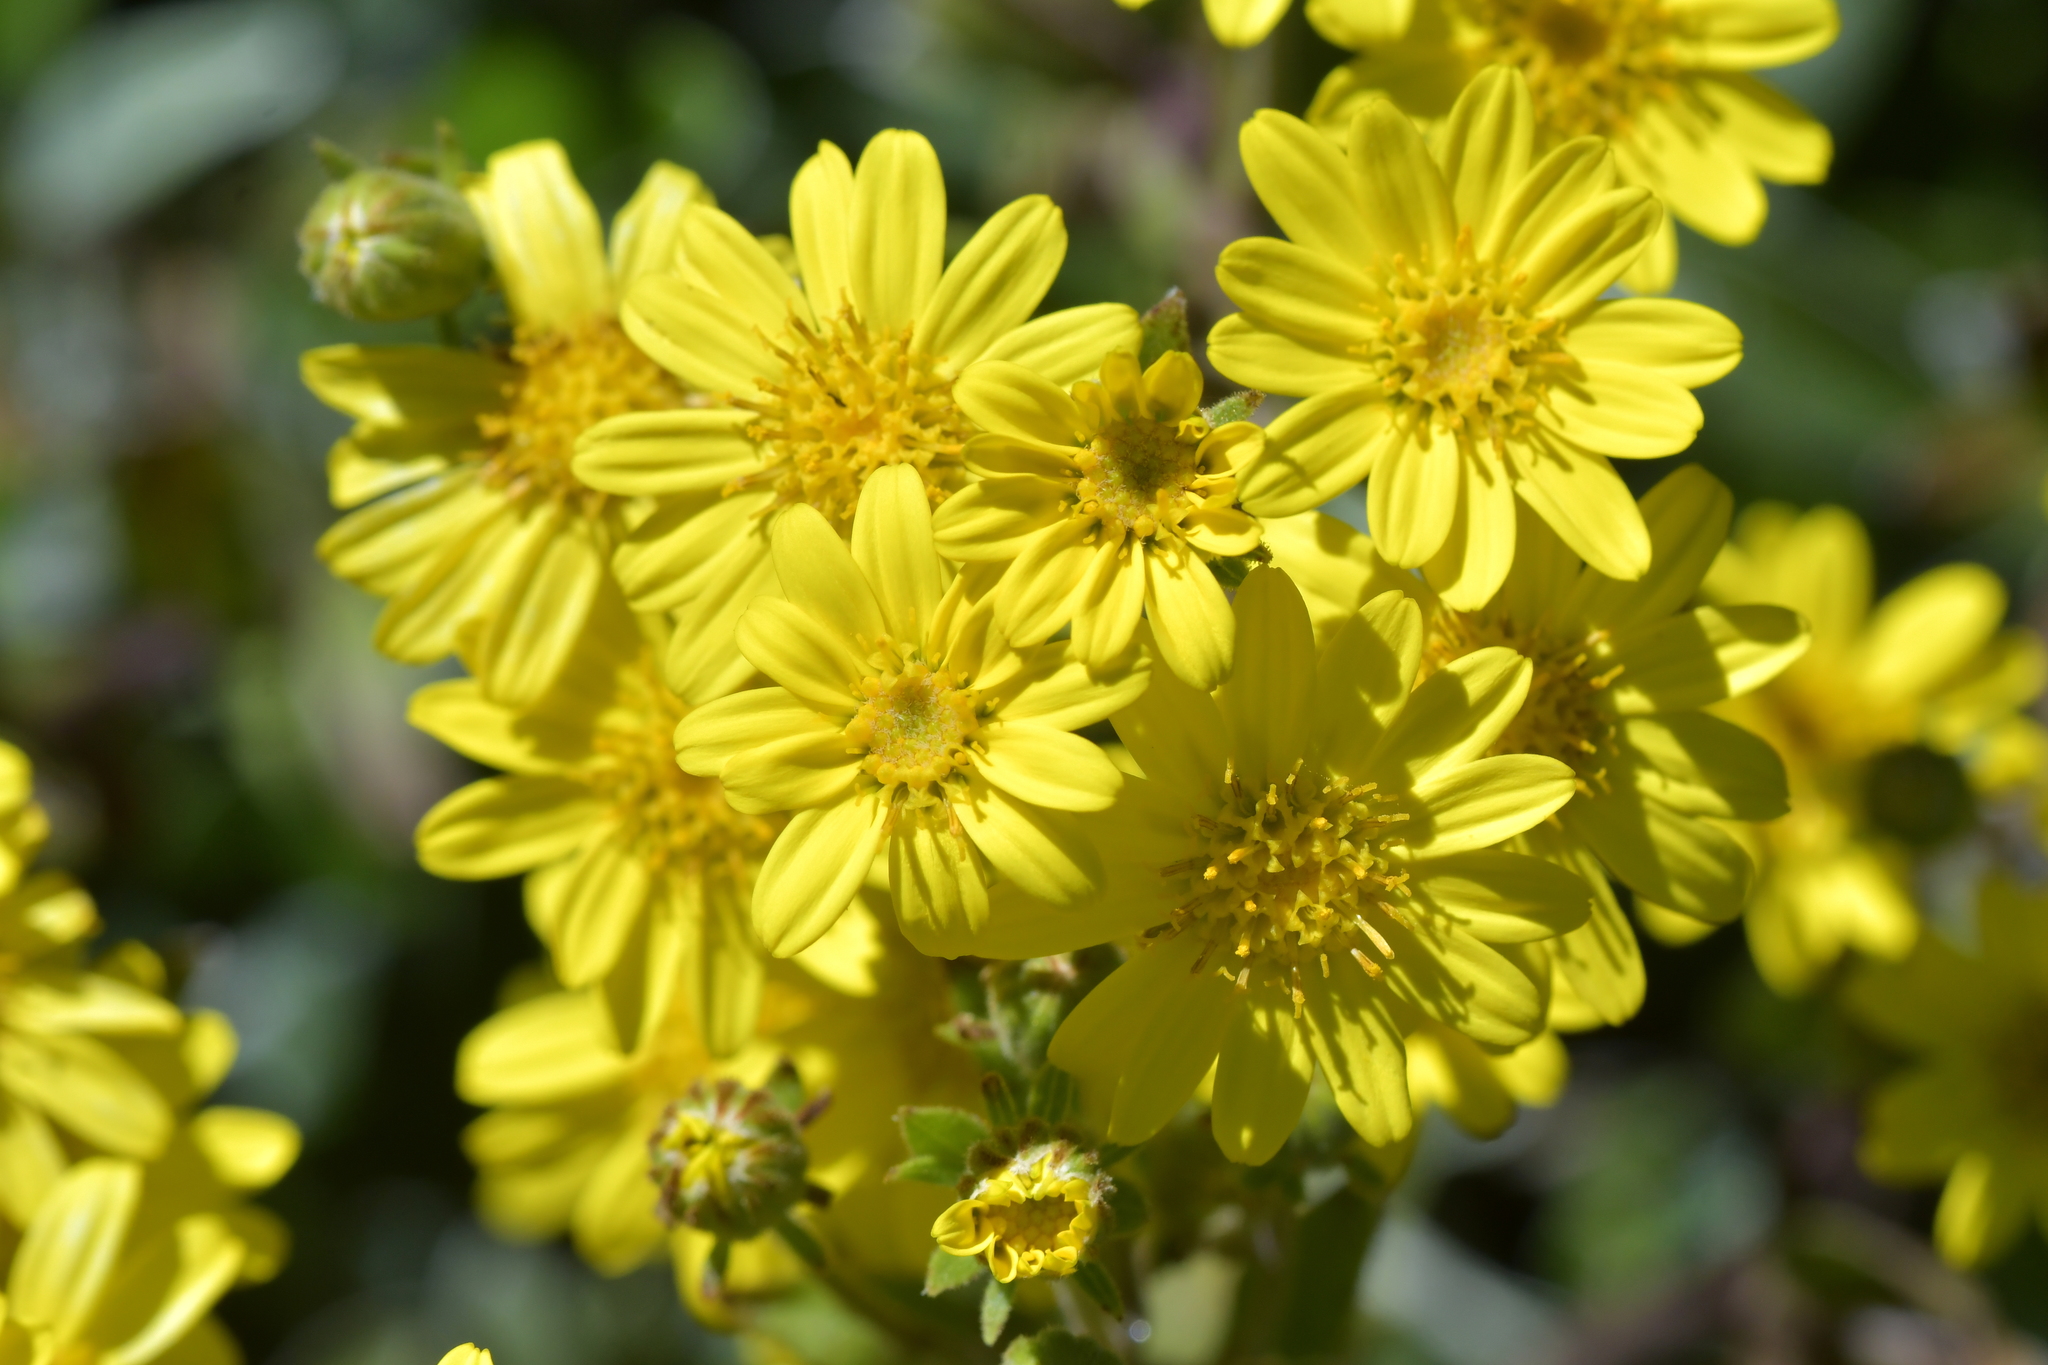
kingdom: Plantae
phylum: Tracheophyta
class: Magnoliopsida
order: Asterales
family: Asteraceae
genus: Brachyglottis
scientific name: Brachyglottis laxifolia
